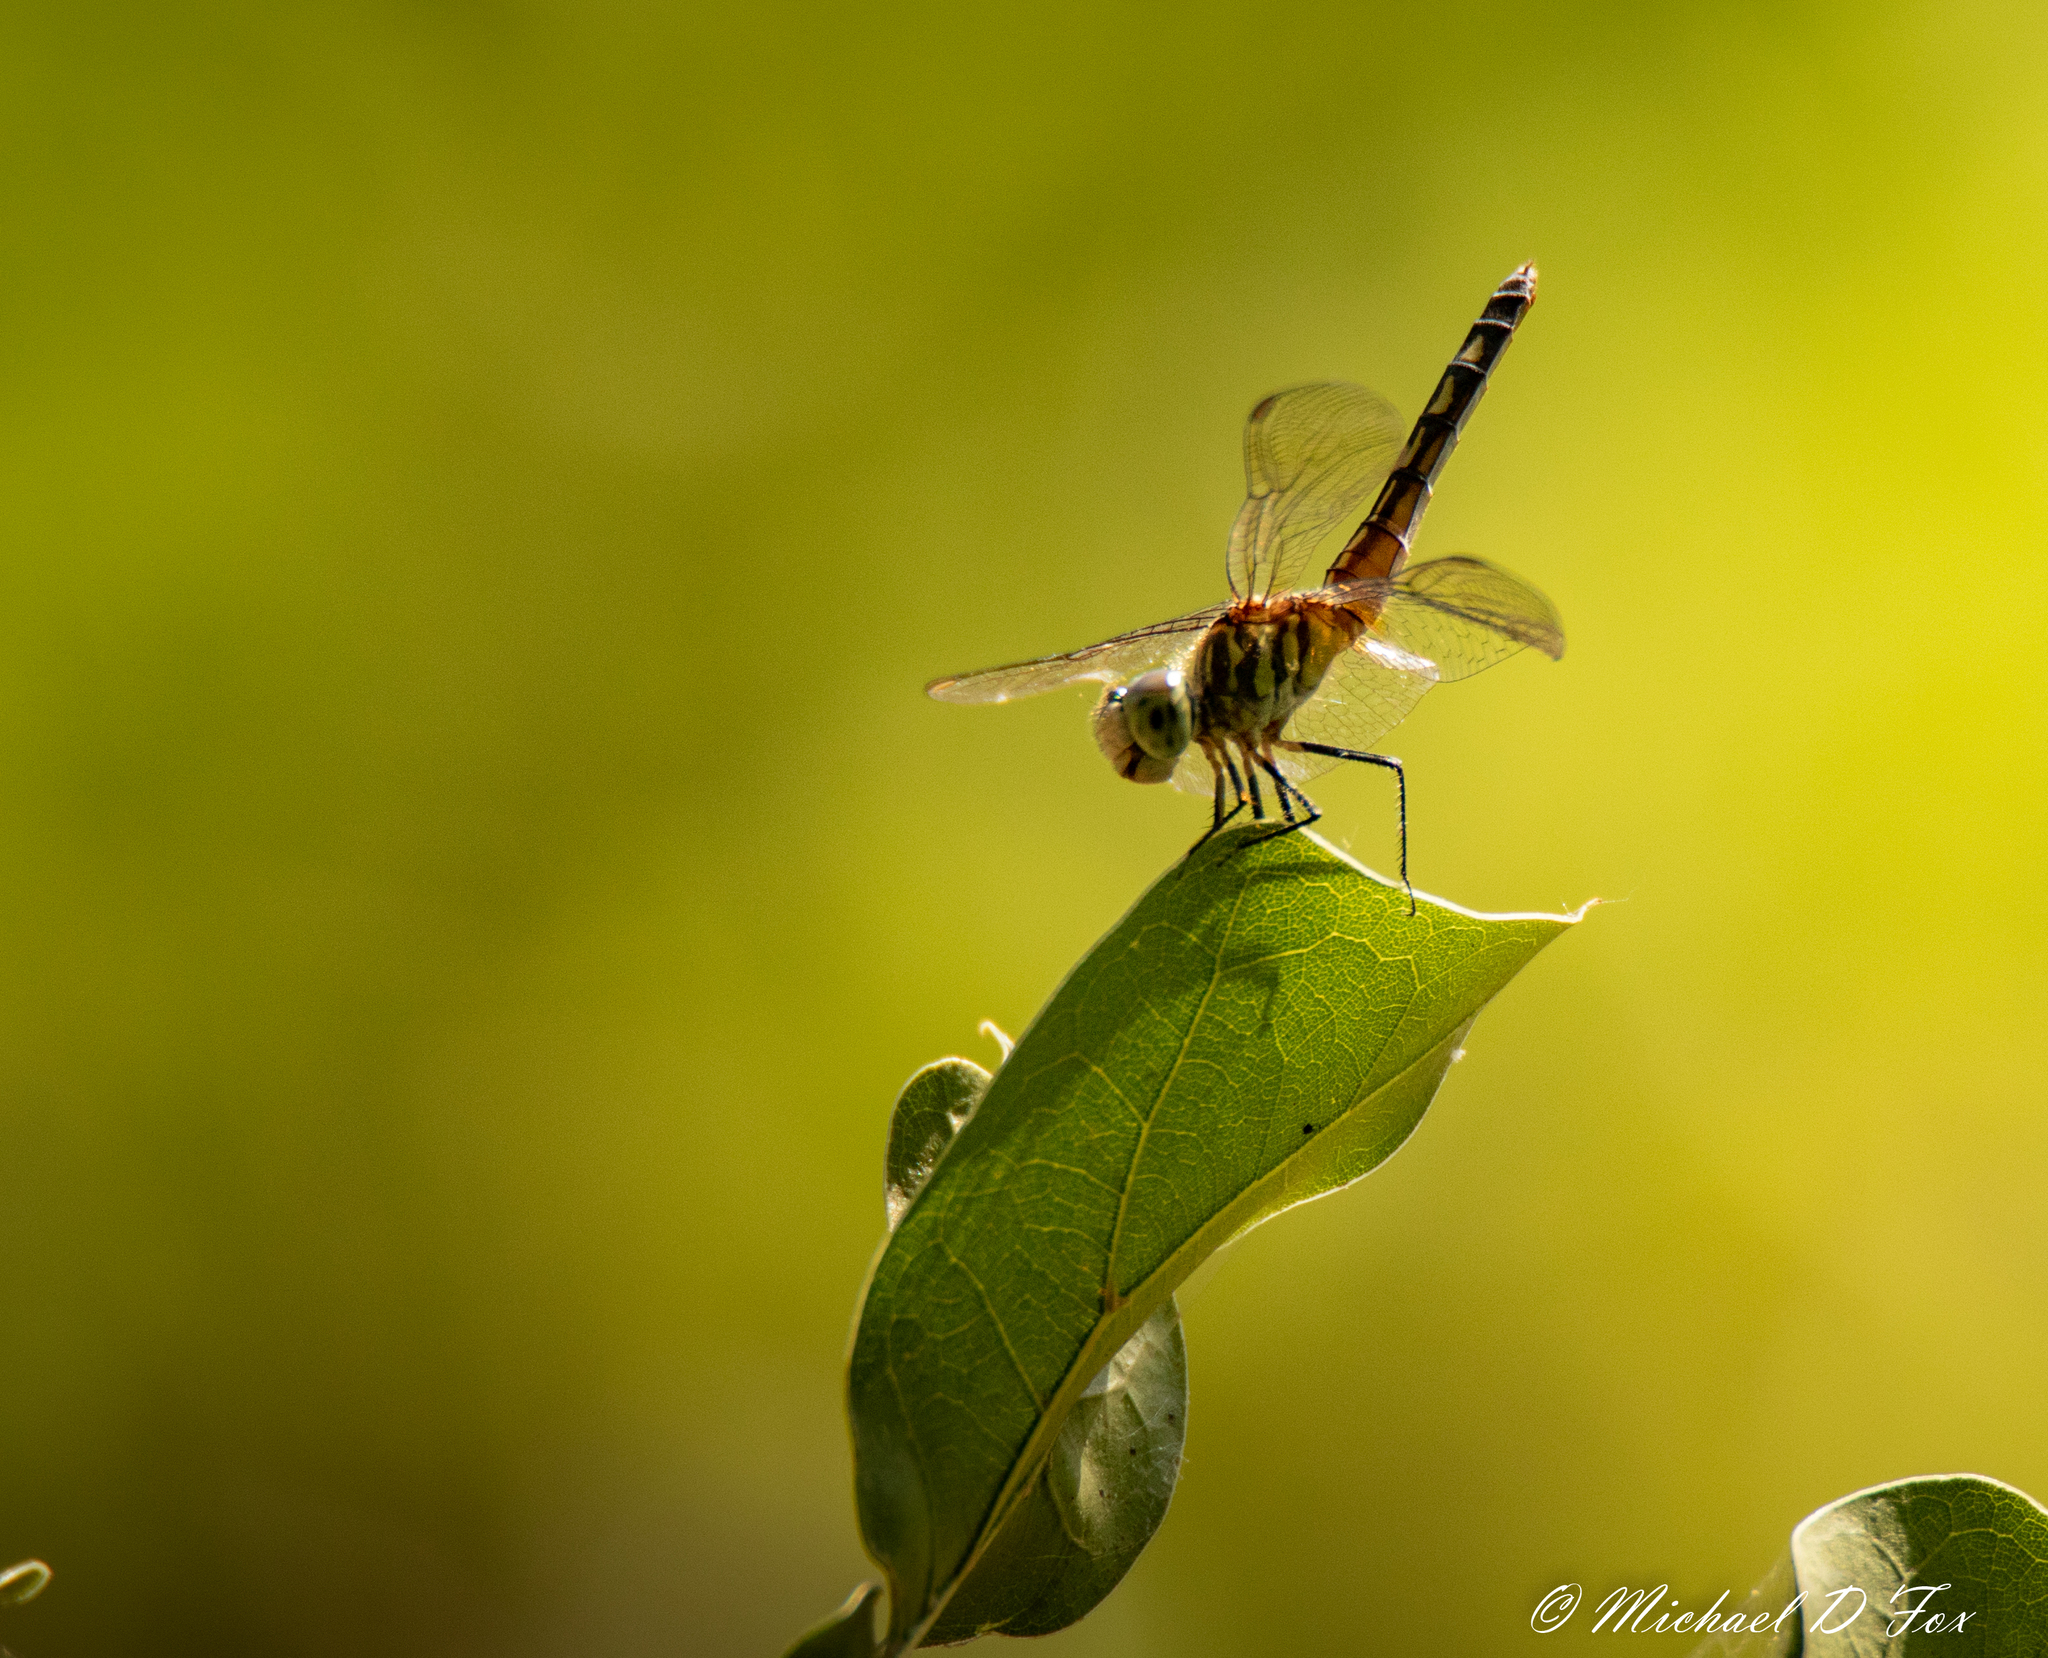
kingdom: Animalia
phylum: Arthropoda
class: Insecta
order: Odonata
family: Libellulidae
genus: Pachydiplax
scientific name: Pachydiplax longipennis
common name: Blue dasher
